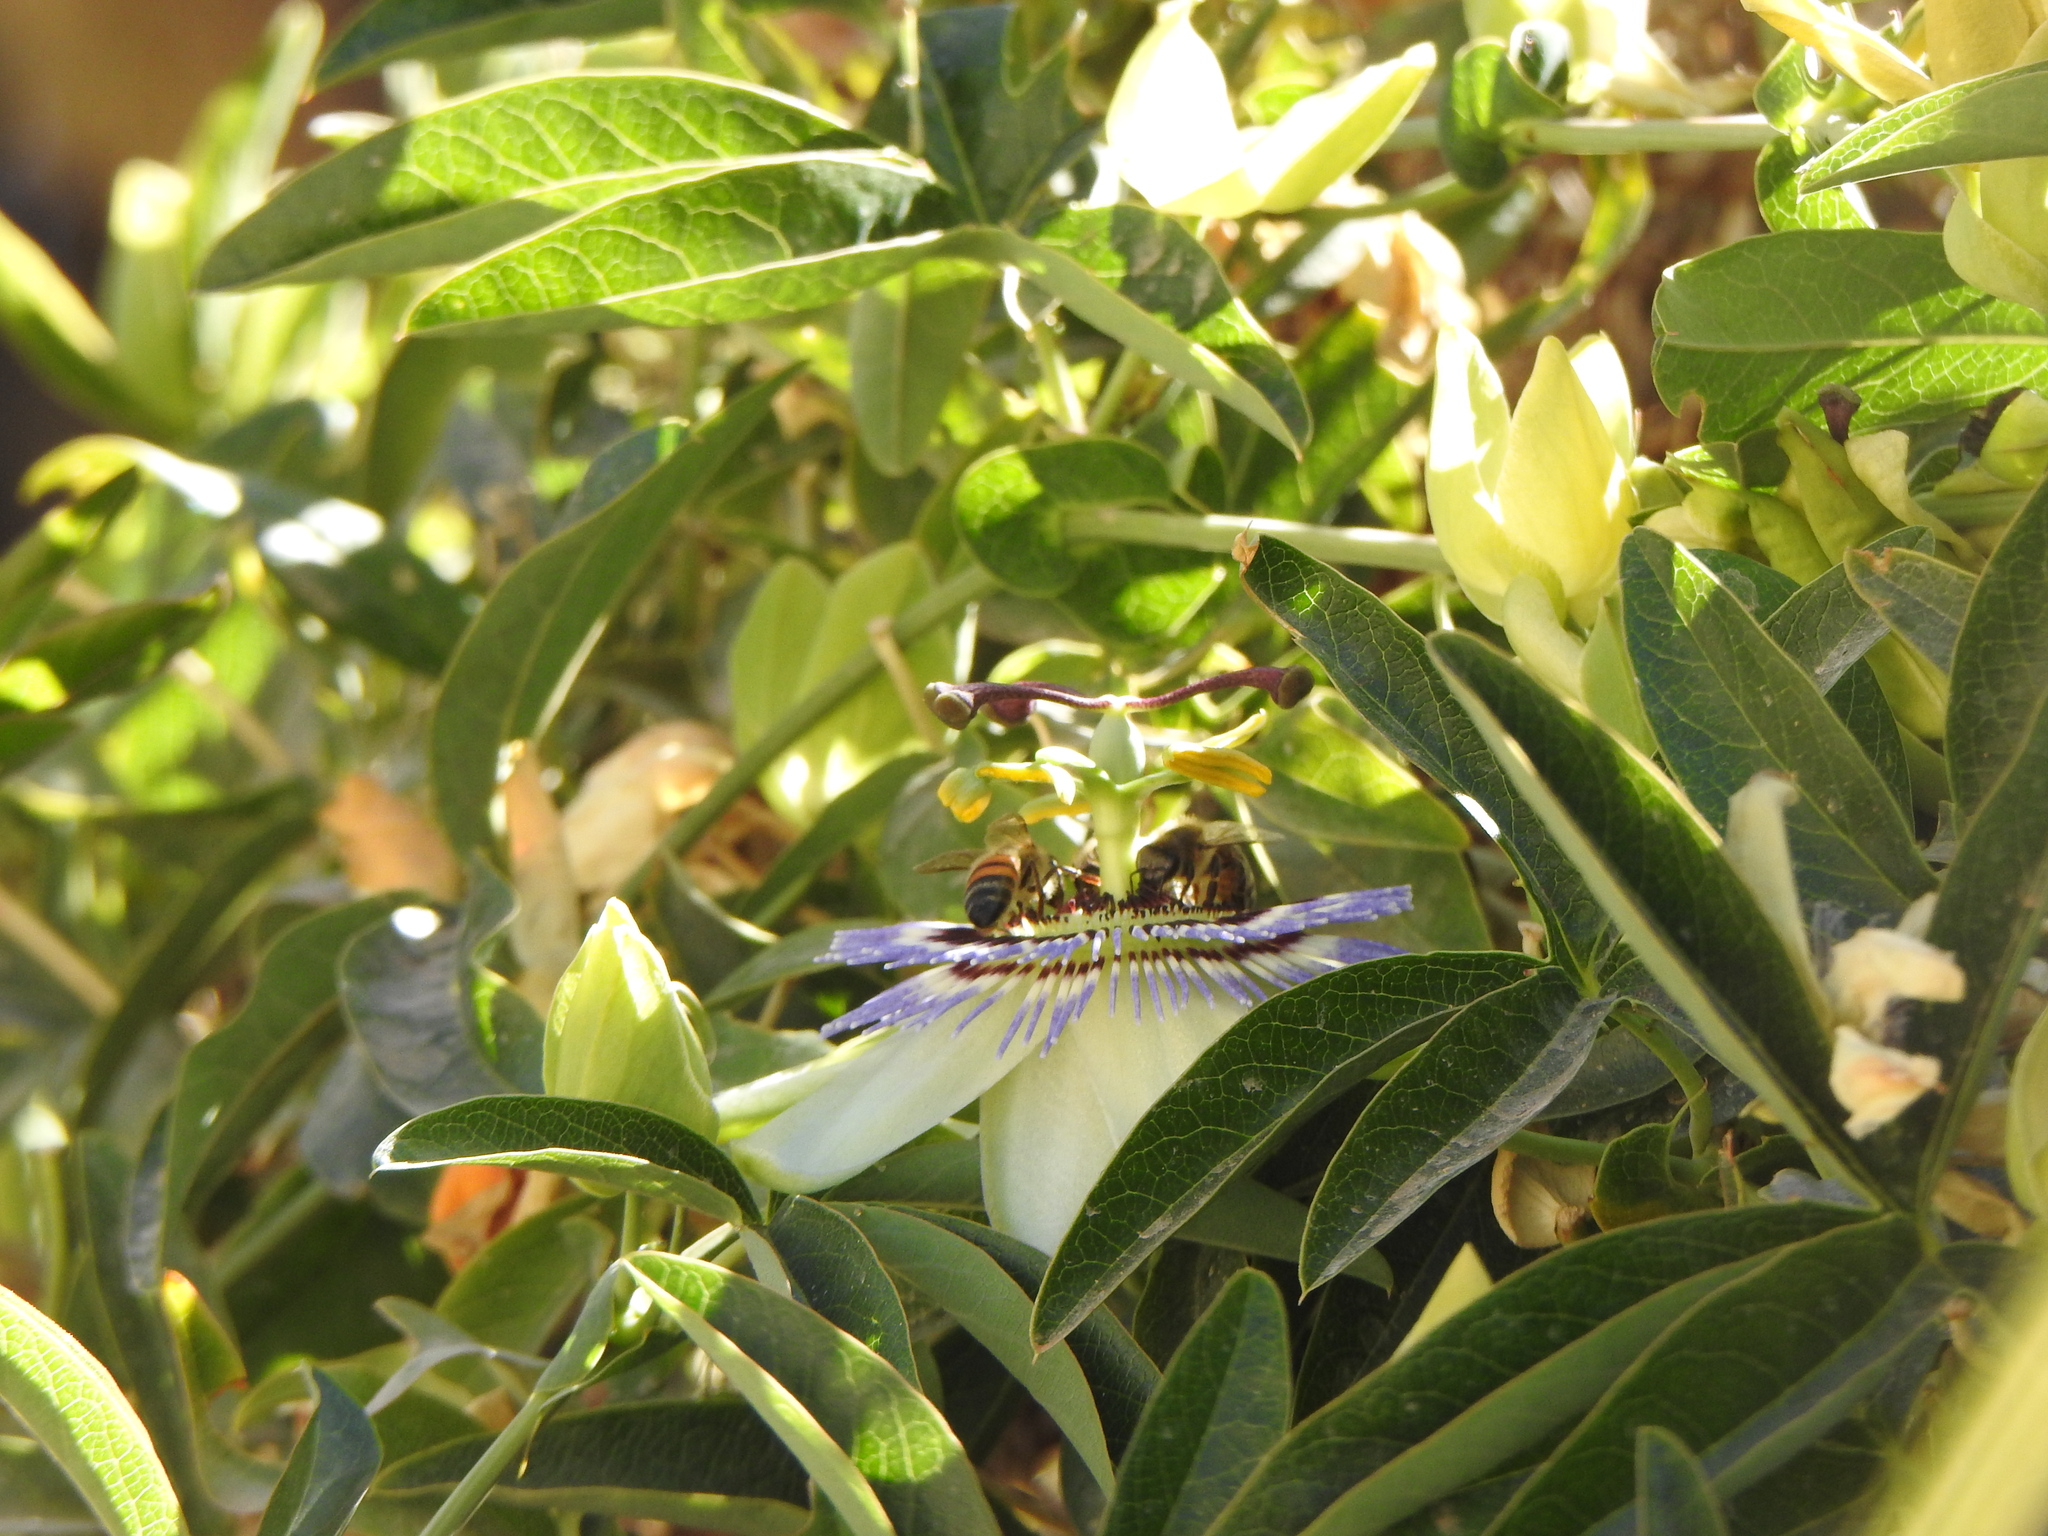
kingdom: Plantae
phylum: Tracheophyta
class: Magnoliopsida
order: Malpighiales
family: Passifloraceae
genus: Passiflora
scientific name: Passiflora caerulea
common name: Blue passionflower
